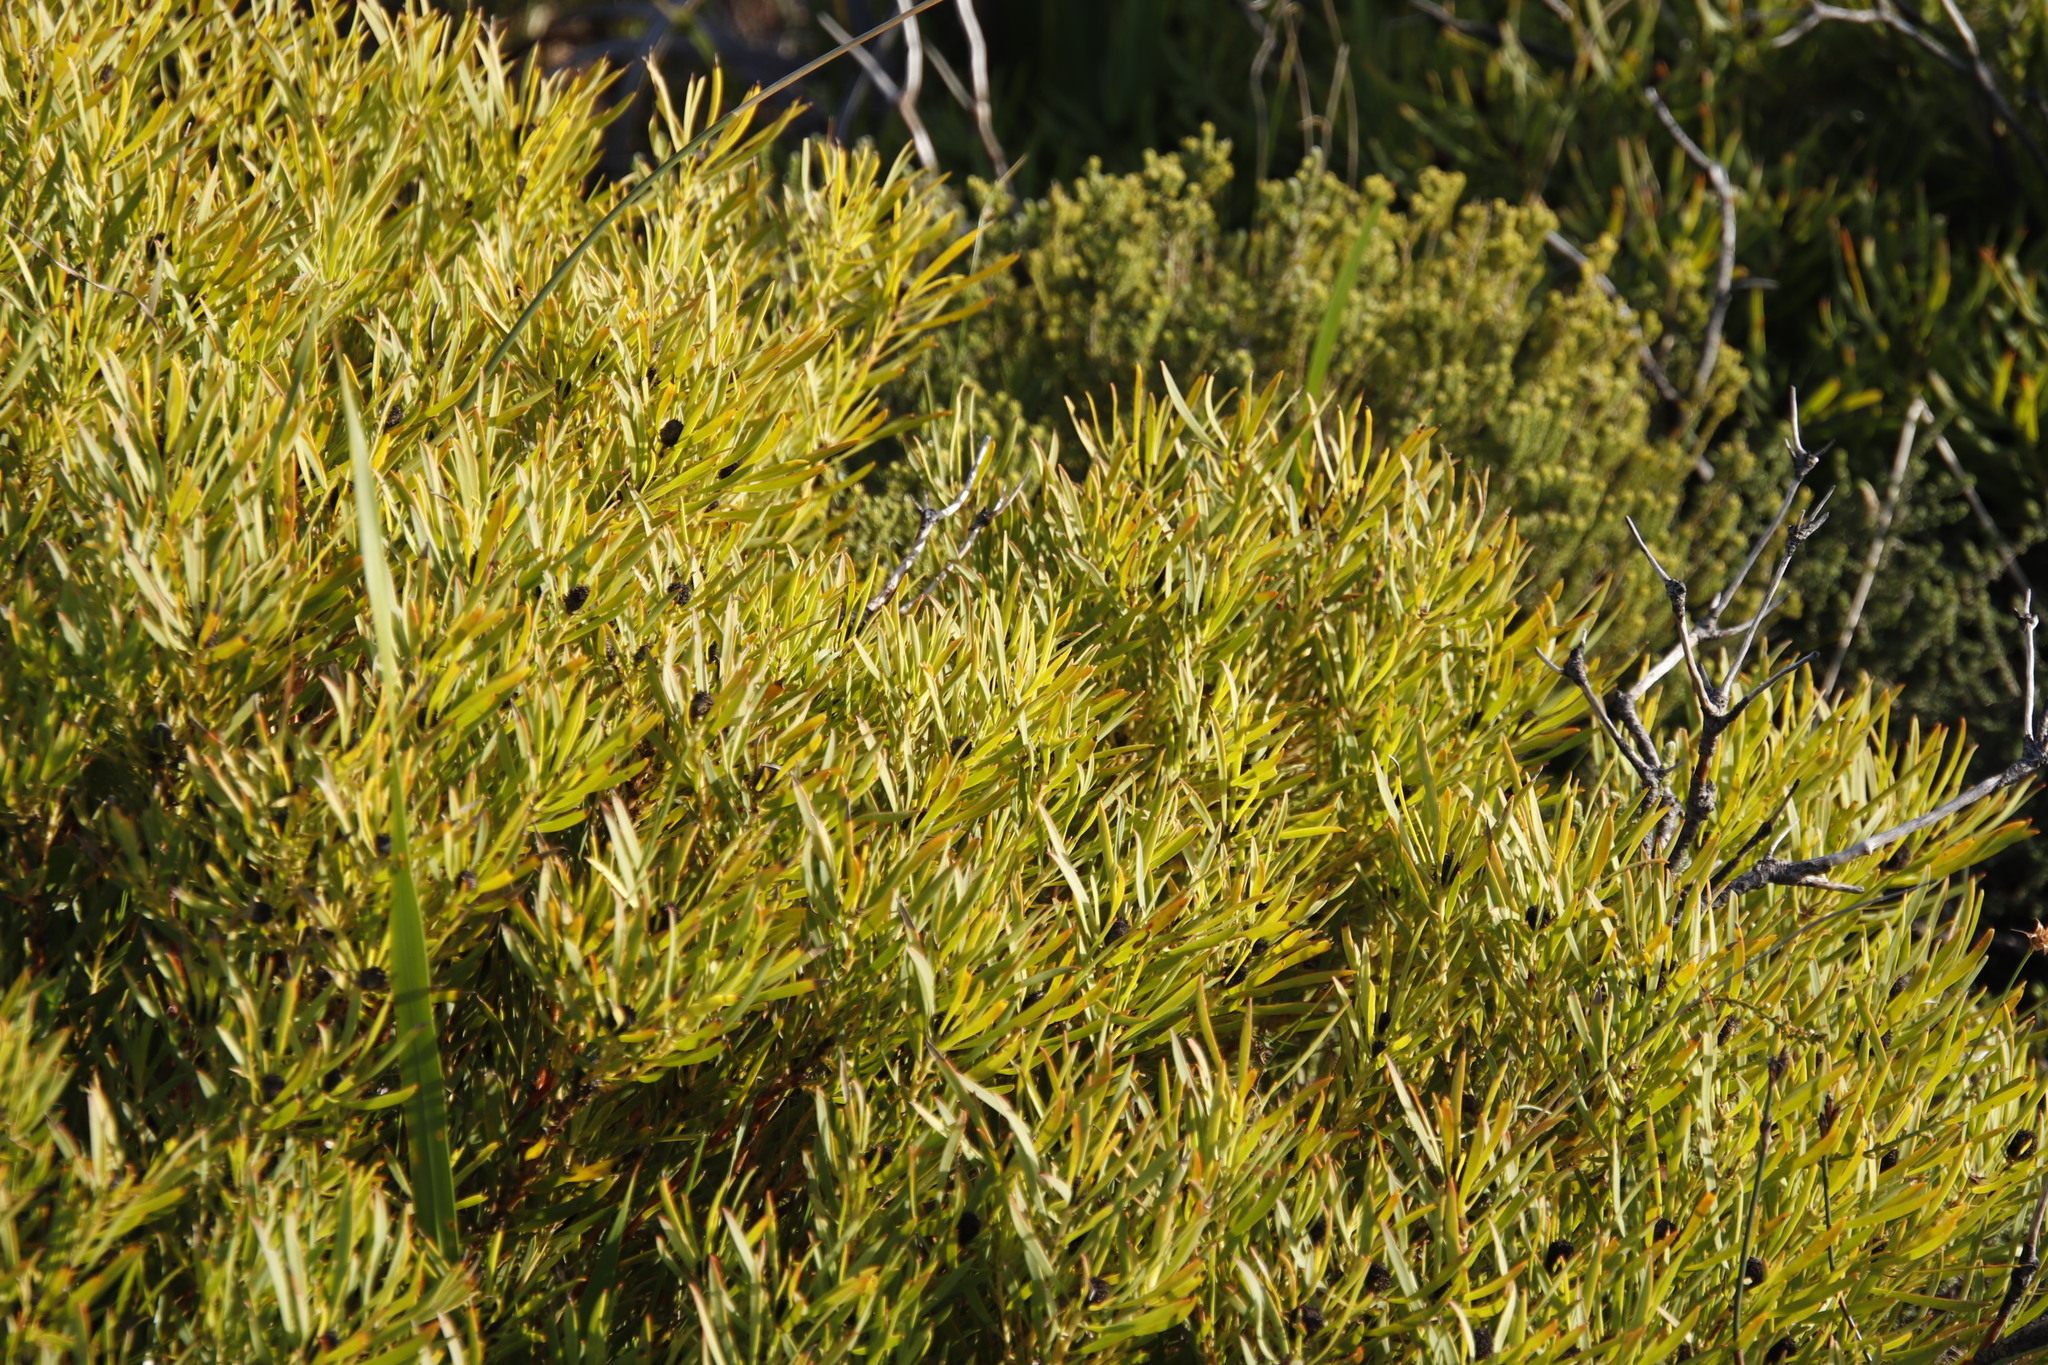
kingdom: Plantae
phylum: Tracheophyta
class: Magnoliopsida
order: Proteales
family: Proteaceae
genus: Leucadendron
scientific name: Leucadendron salignum
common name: Common sunshine conebush
